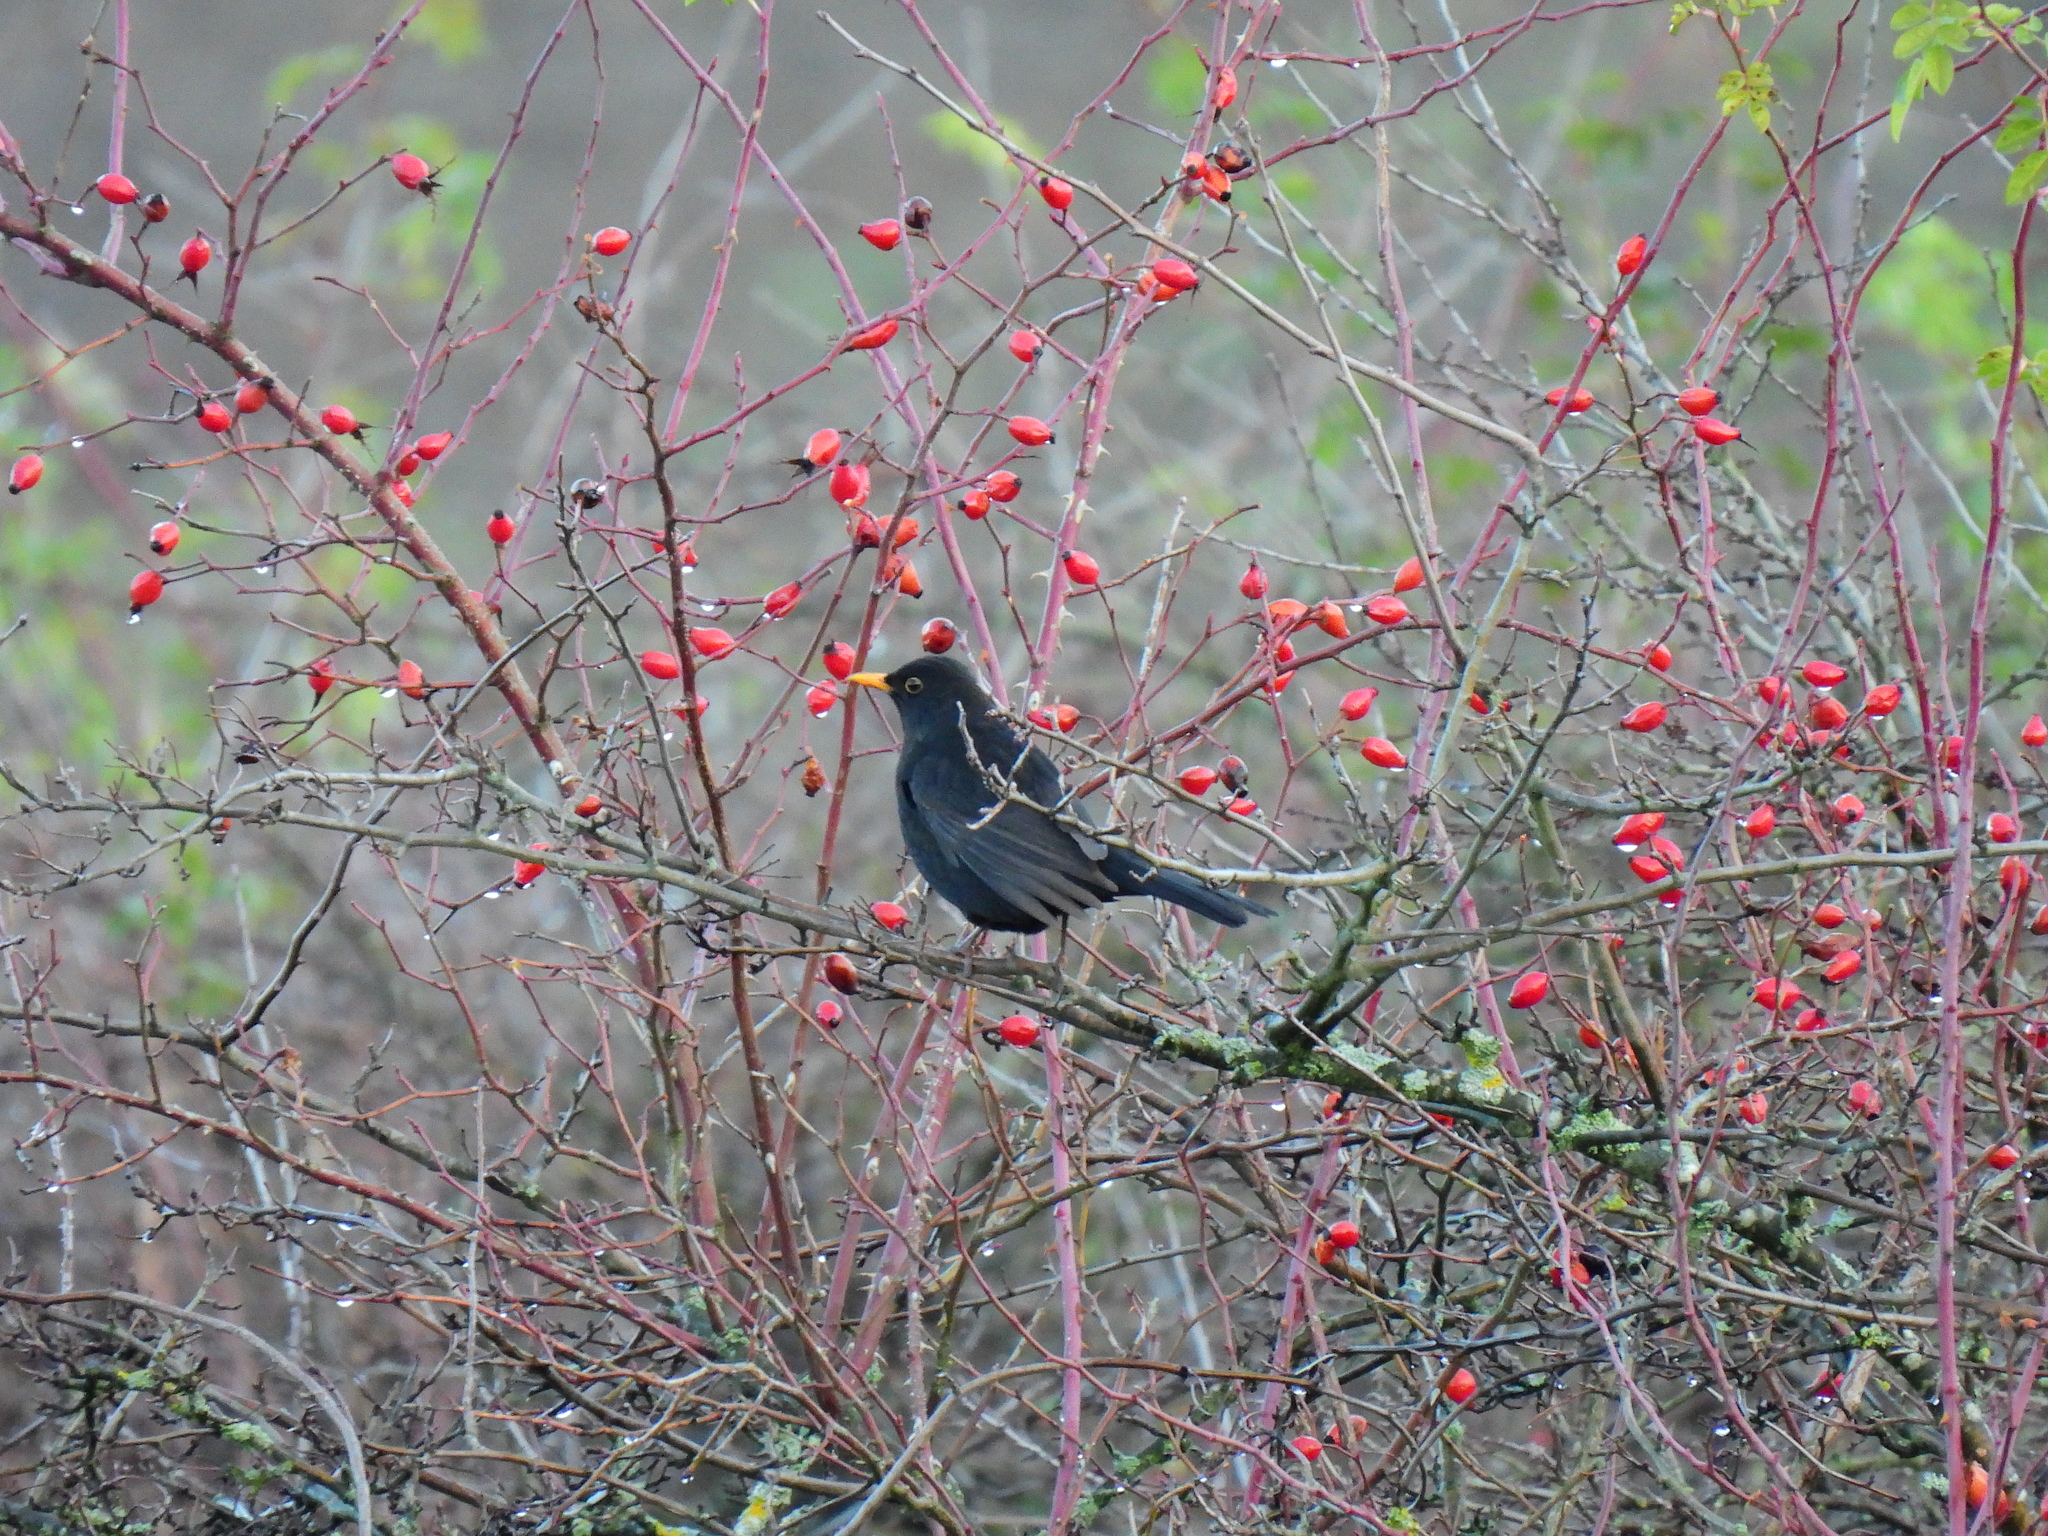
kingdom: Animalia
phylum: Chordata
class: Aves
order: Passeriformes
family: Turdidae
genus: Turdus
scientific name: Turdus merula
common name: Common blackbird
